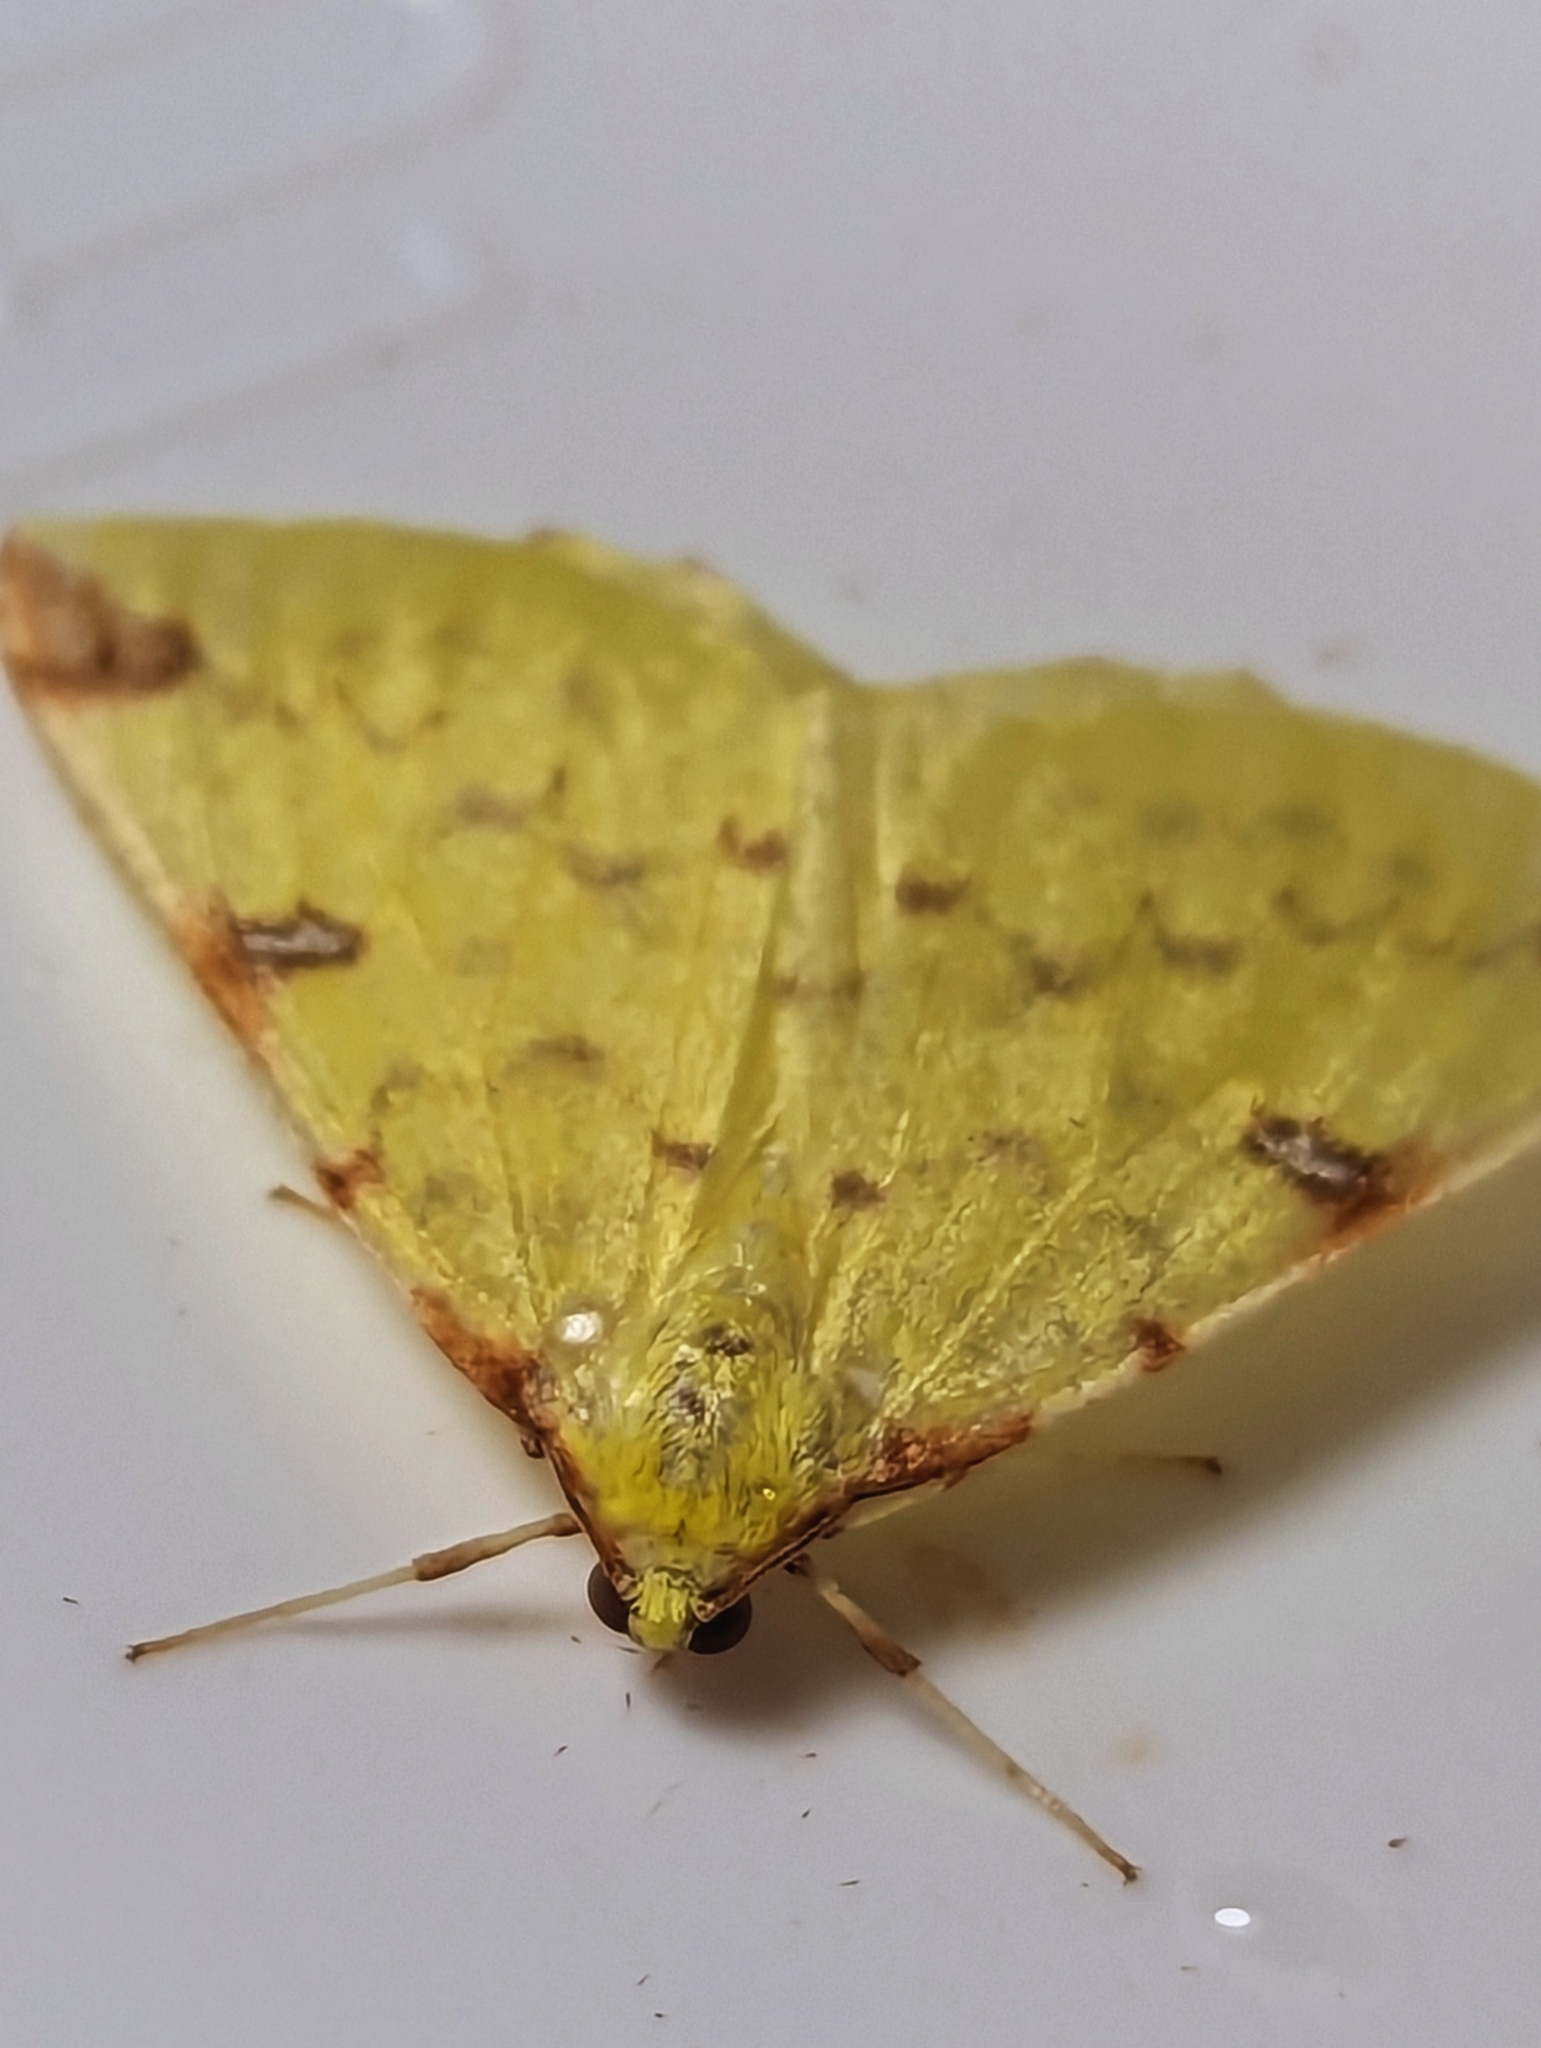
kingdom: Animalia
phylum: Arthropoda
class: Insecta
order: Lepidoptera
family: Geometridae
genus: Opisthograptis
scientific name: Opisthograptis luteolata
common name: Brimstone moth
